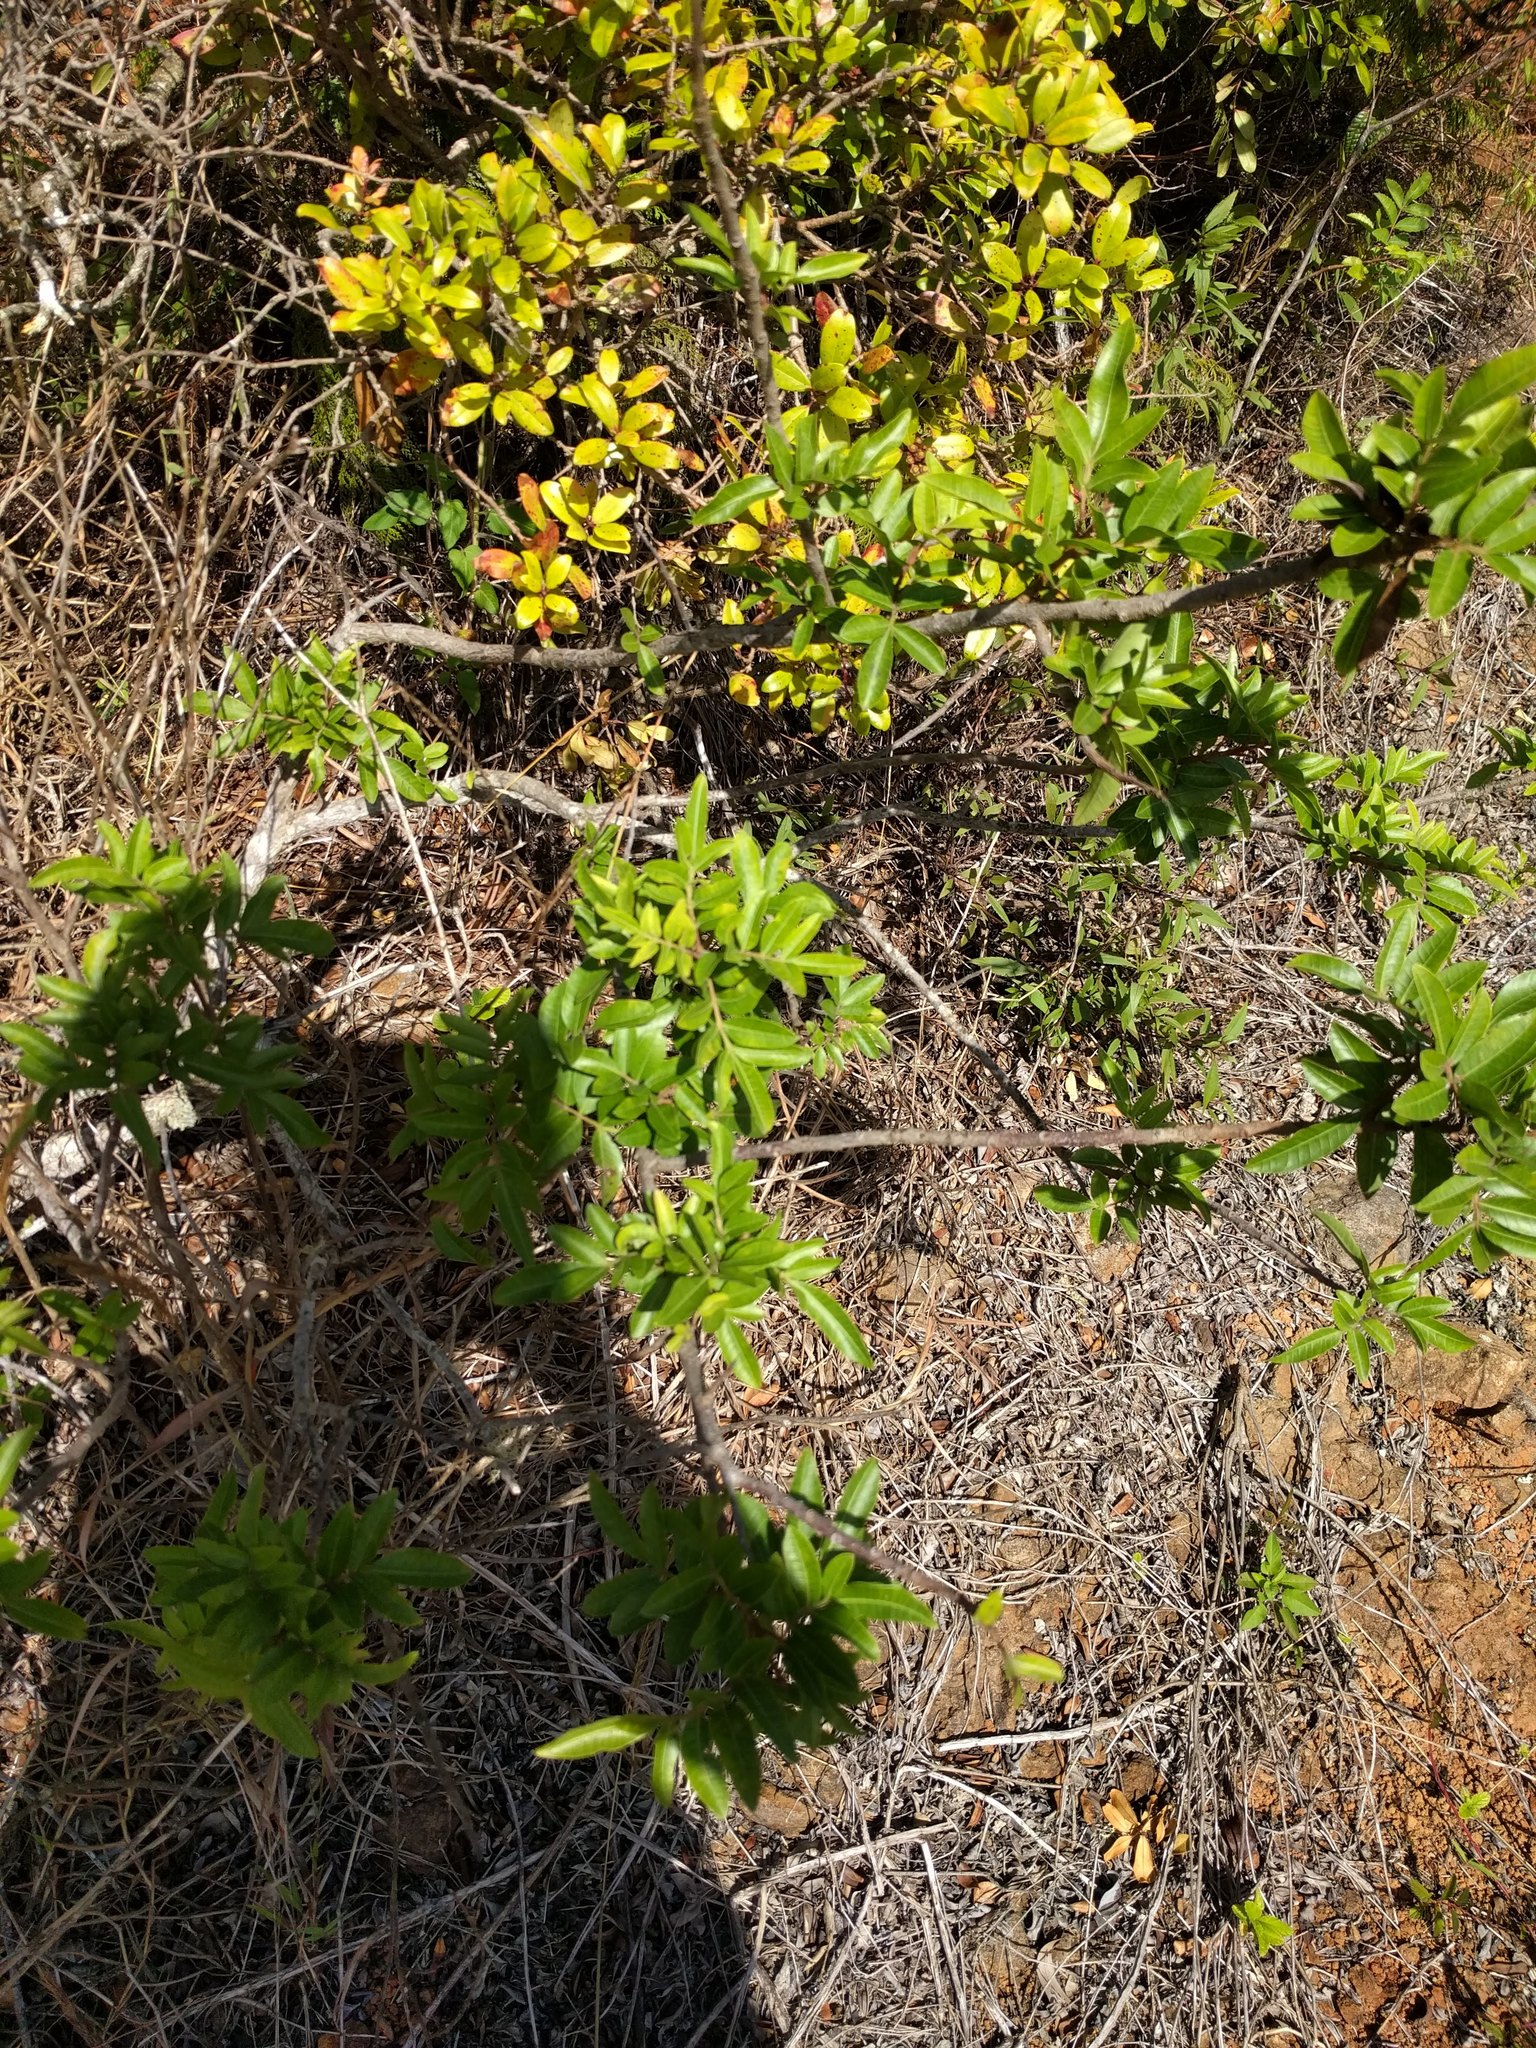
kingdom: Plantae
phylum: Tracheophyta
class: Magnoliopsida
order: Sapindales
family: Anacardiaceae
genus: Schinus
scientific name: Schinus terebinthifolia
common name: Brazilian peppertree
